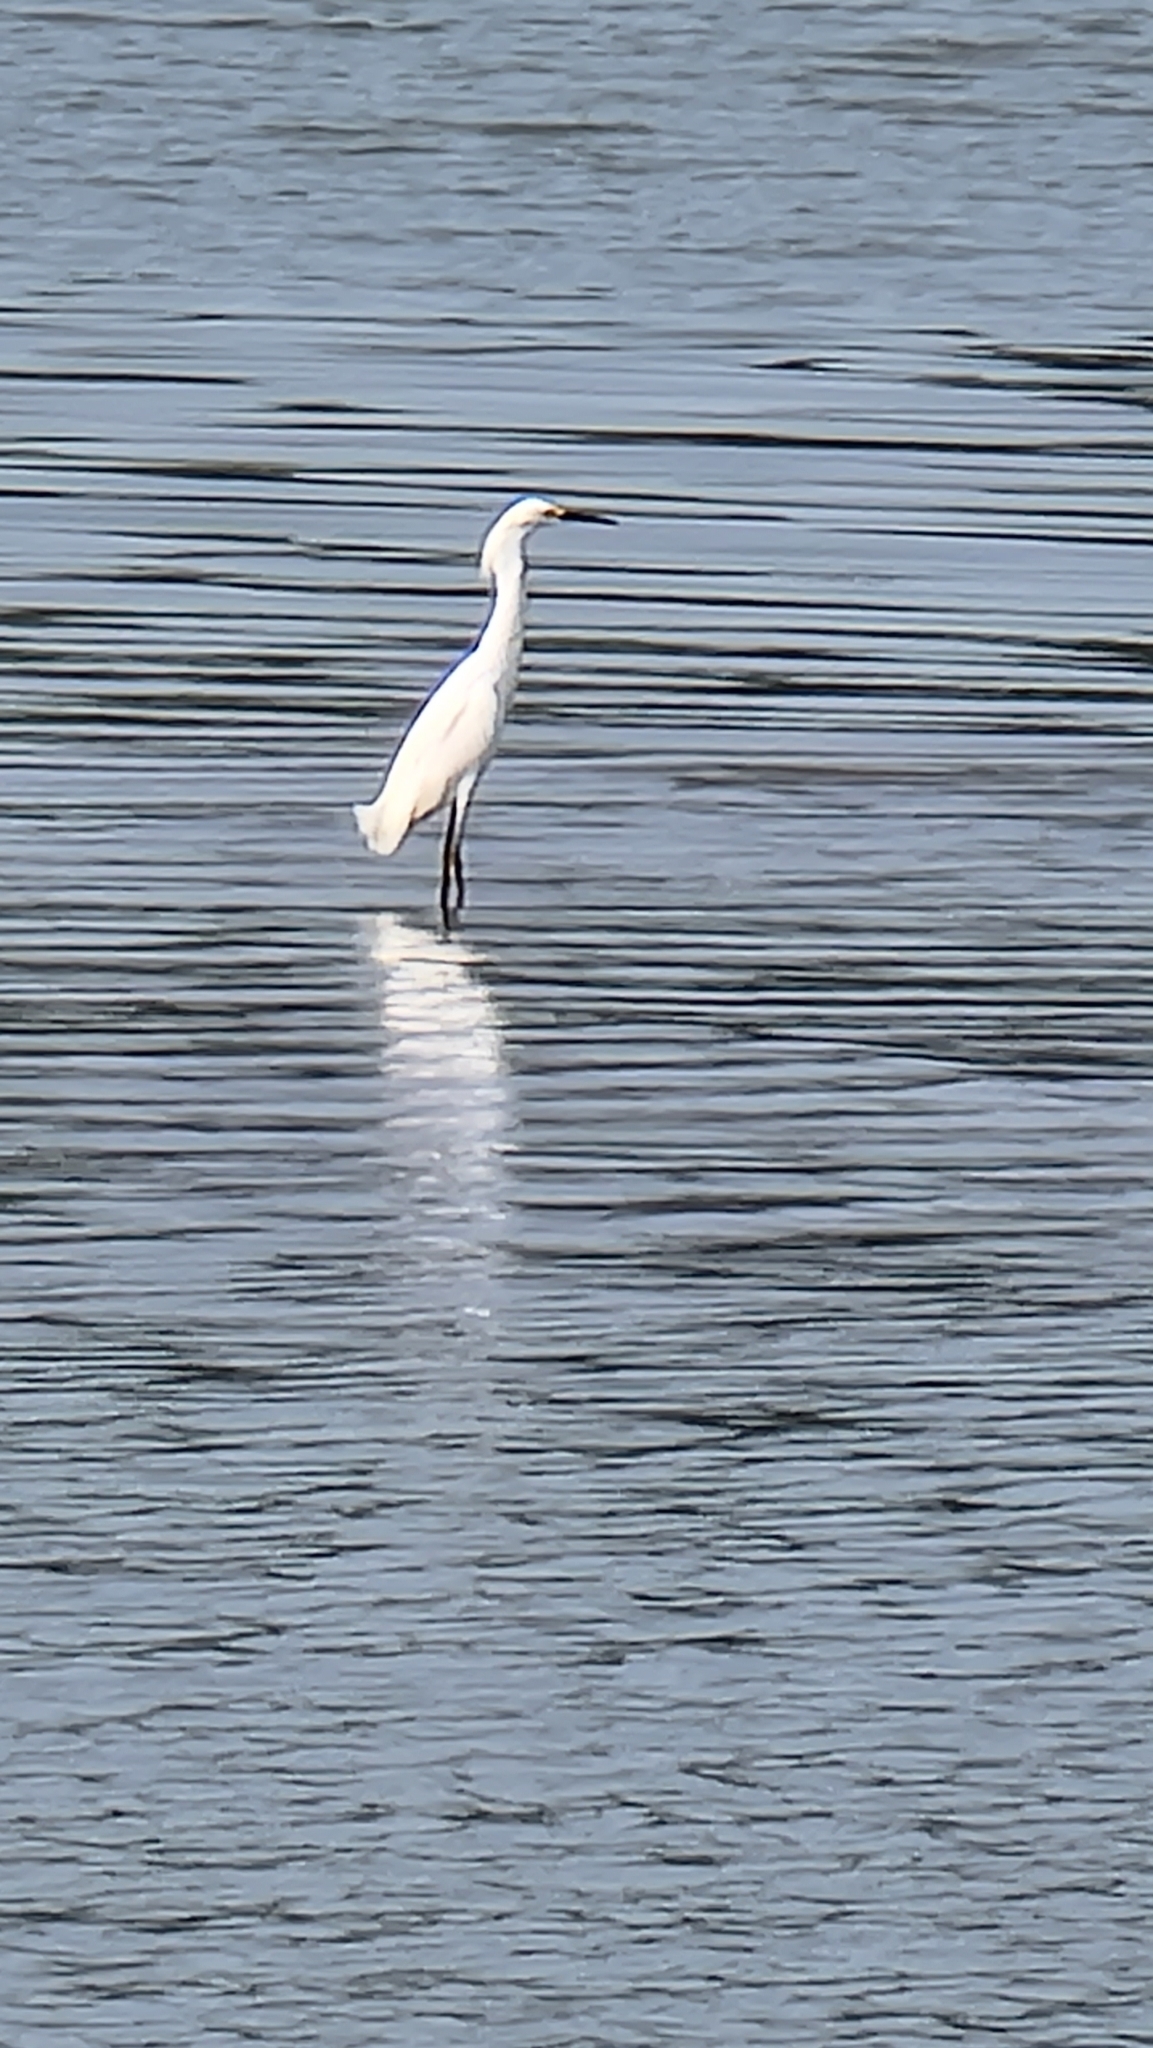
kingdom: Animalia
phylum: Chordata
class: Aves
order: Pelecaniformes
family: Ardeidae
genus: Egretta
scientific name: Egretta thula
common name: Snowy egret
